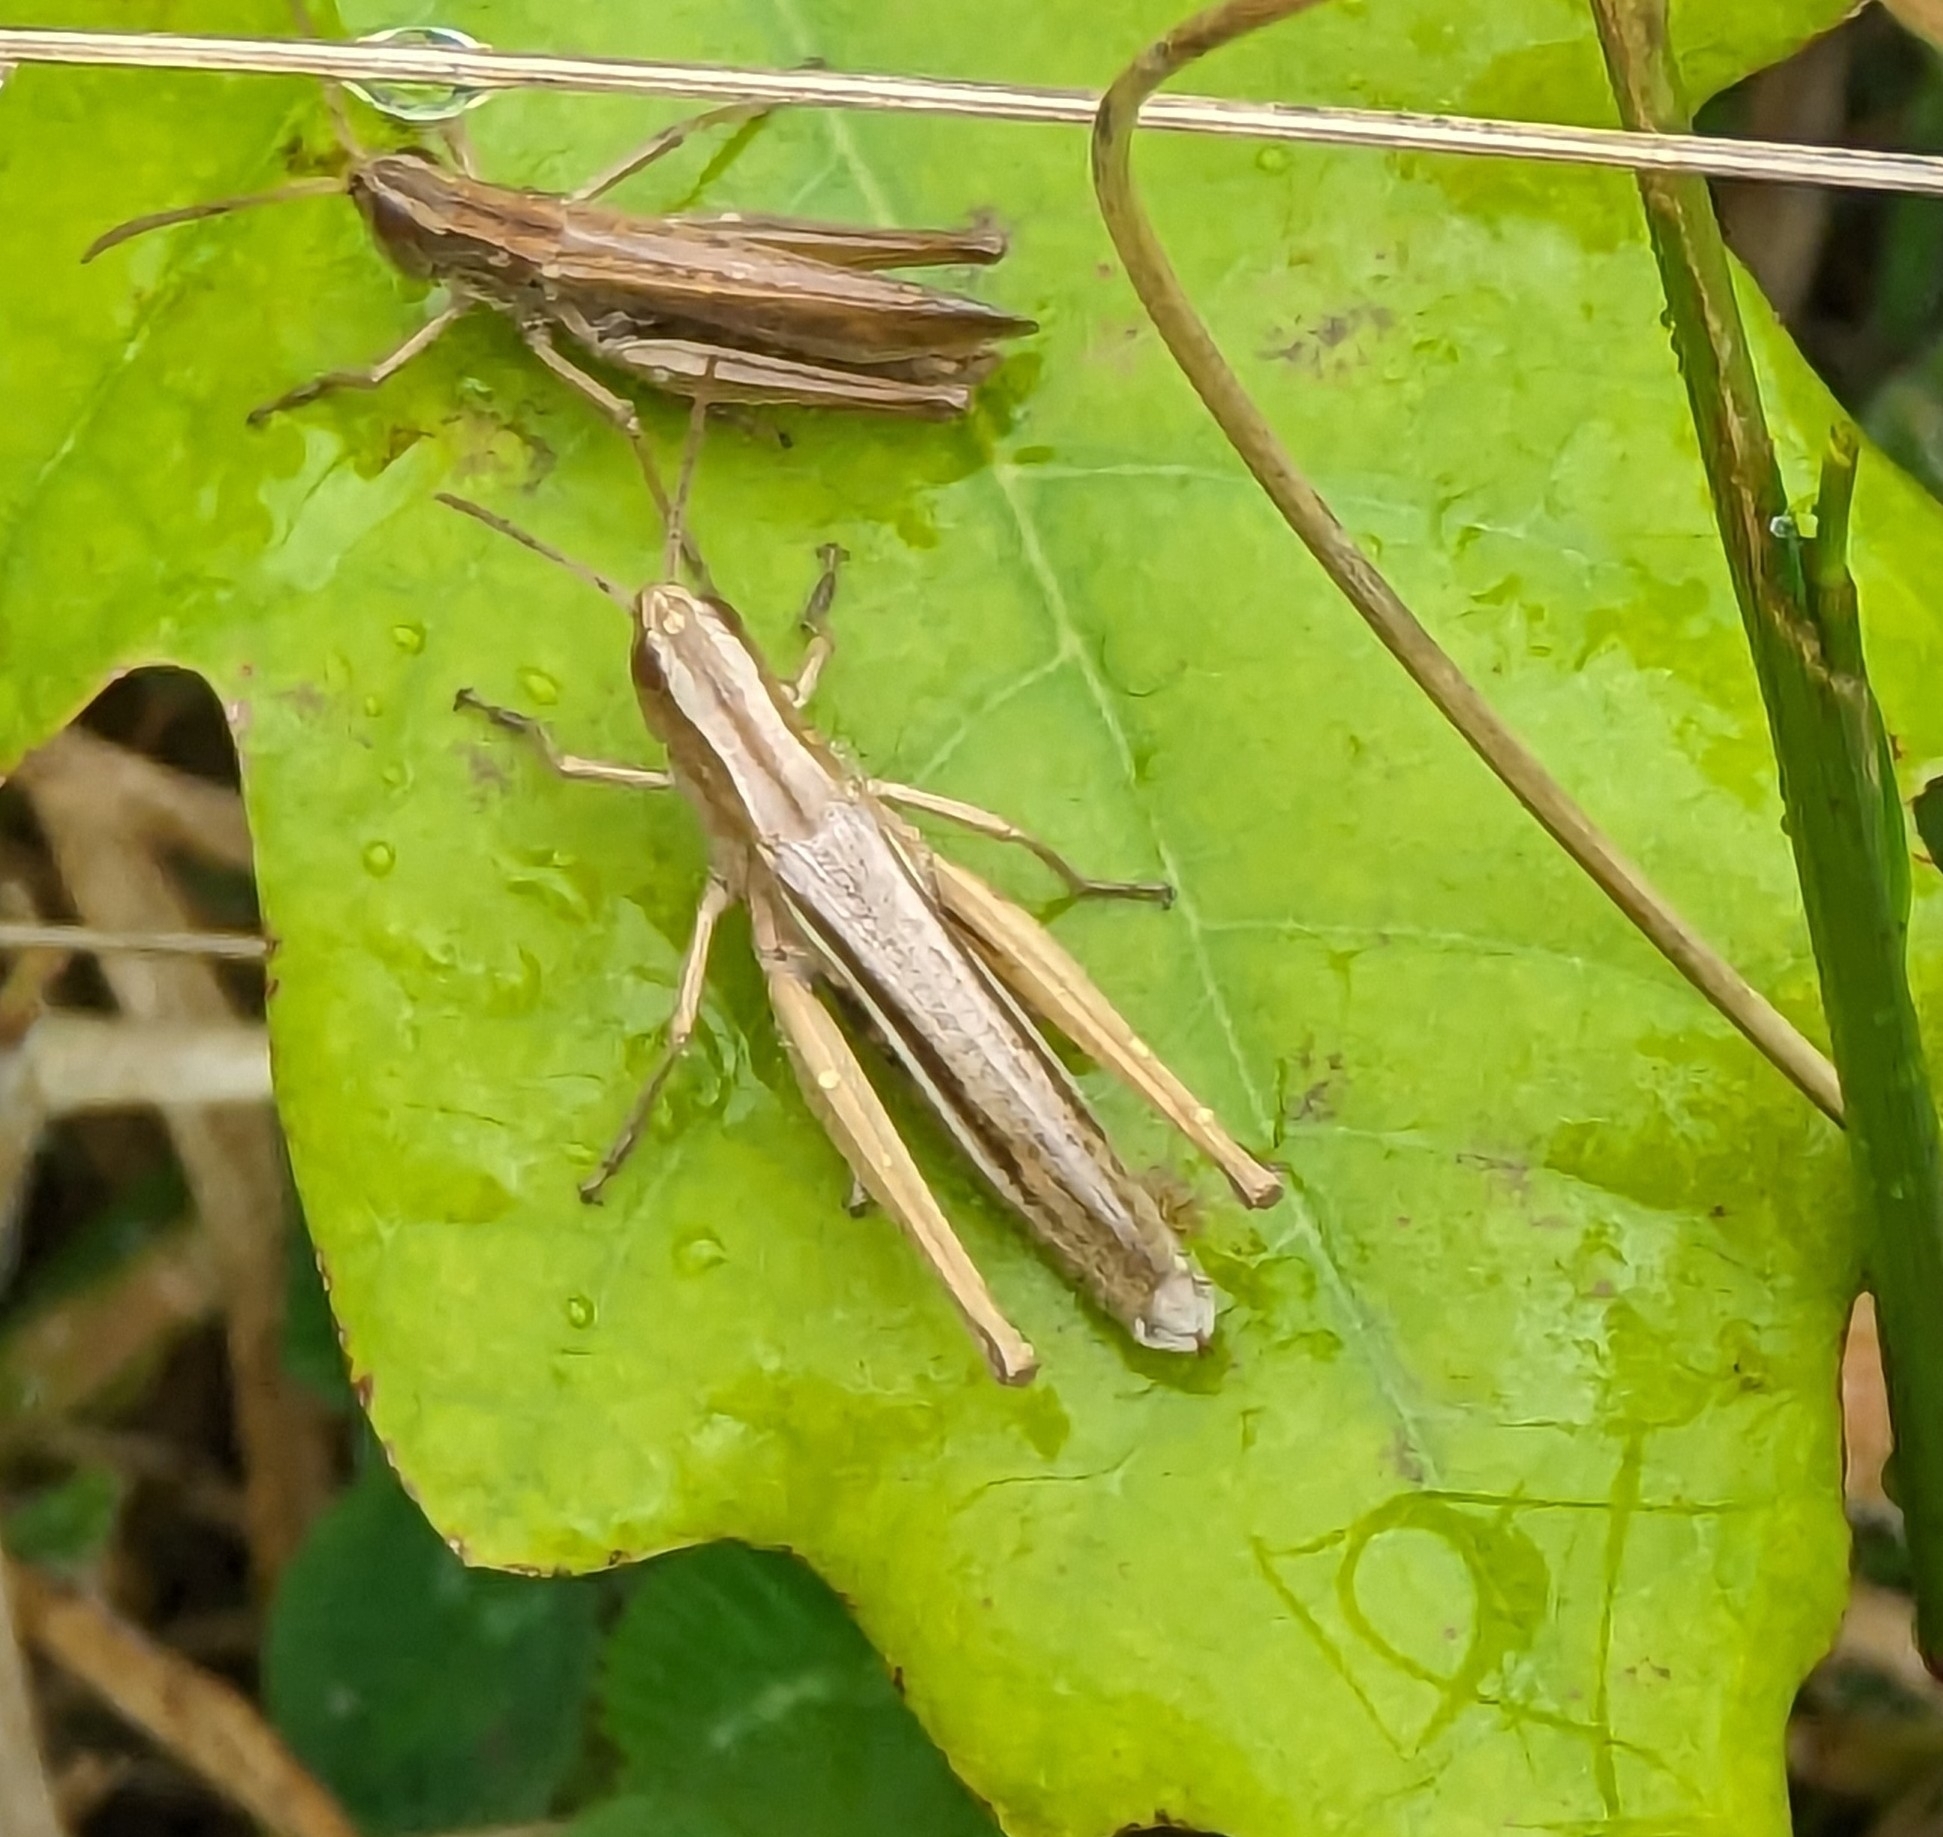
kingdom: Animalia
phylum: Arthropoda
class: Insecta
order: Orthoptera
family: Acrididae
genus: Chorthippus
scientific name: Chorthippus albomarginatus
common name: Lesser marsh grasshopper
